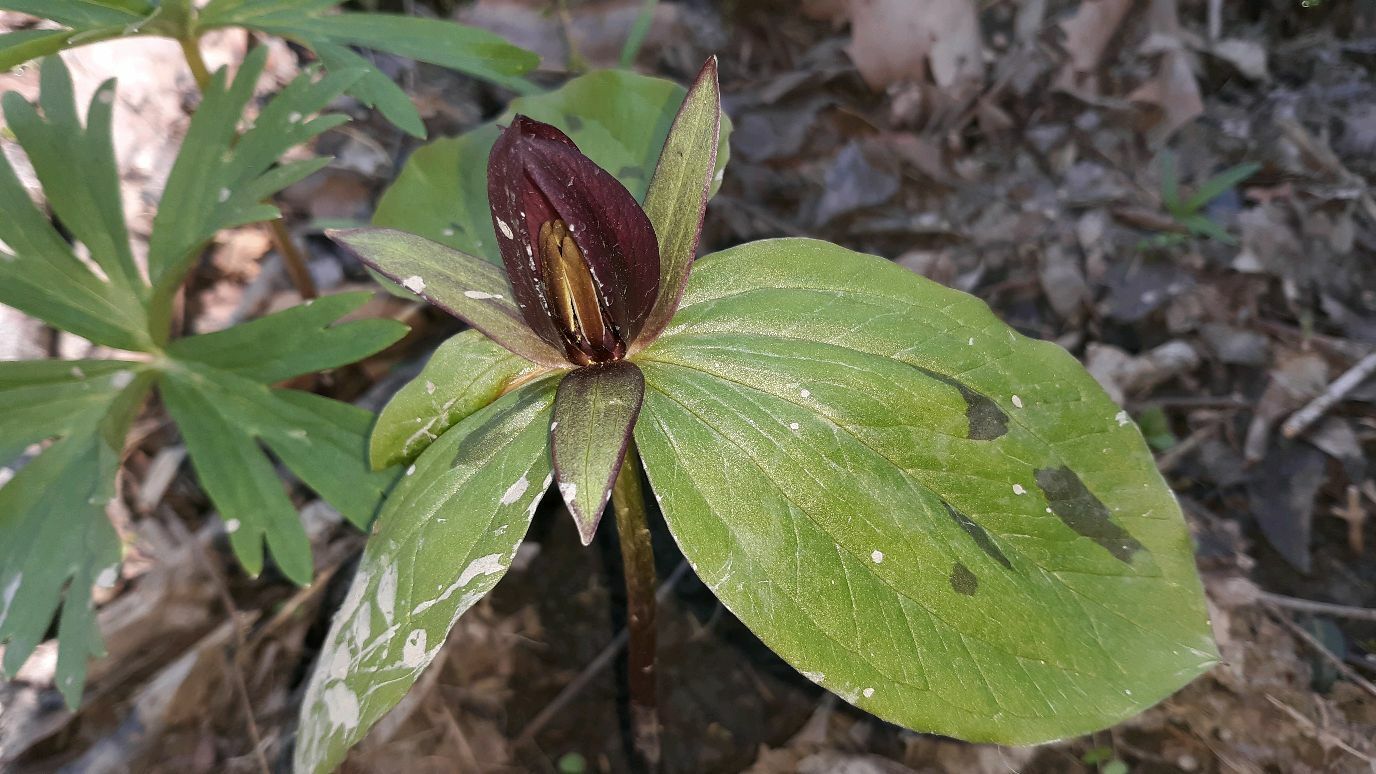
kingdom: Plantae
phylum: Tracheophyta
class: Liliopsida
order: Liliales
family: Melanthiaceae
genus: Trillium
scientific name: Trillium sessile
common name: Sessile trillium
